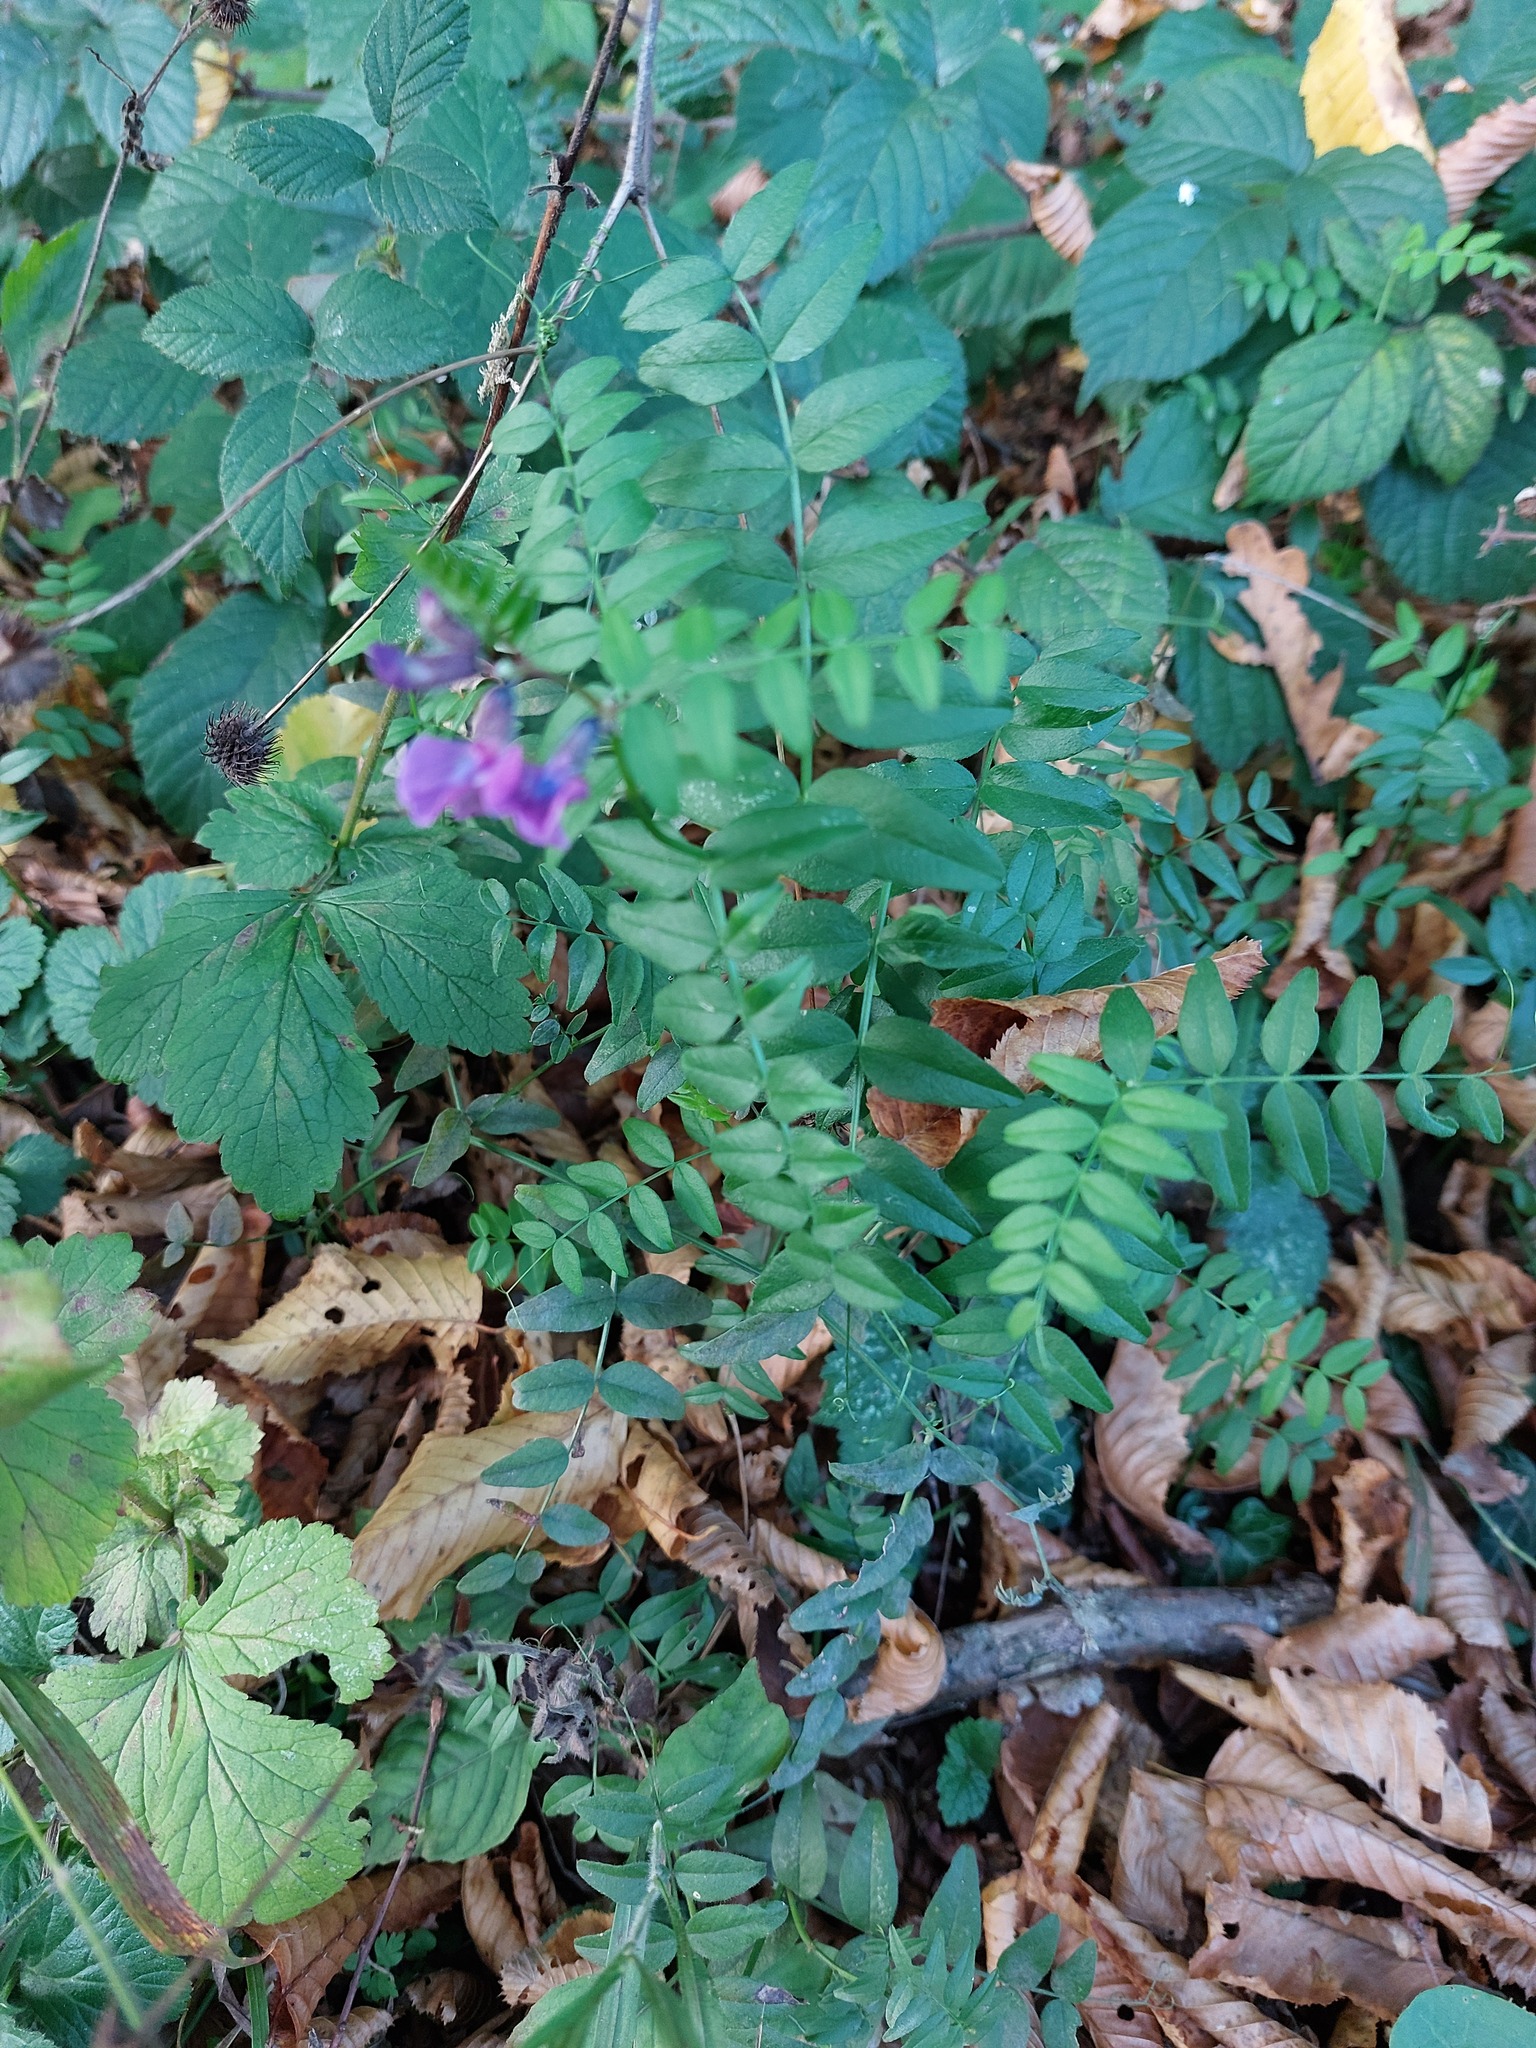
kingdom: Plantae
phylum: Tracheophyta
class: Magnoliopsida
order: Fabales
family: Fabaceae
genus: Vicia
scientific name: Vicia sepium
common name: Bush vetch
